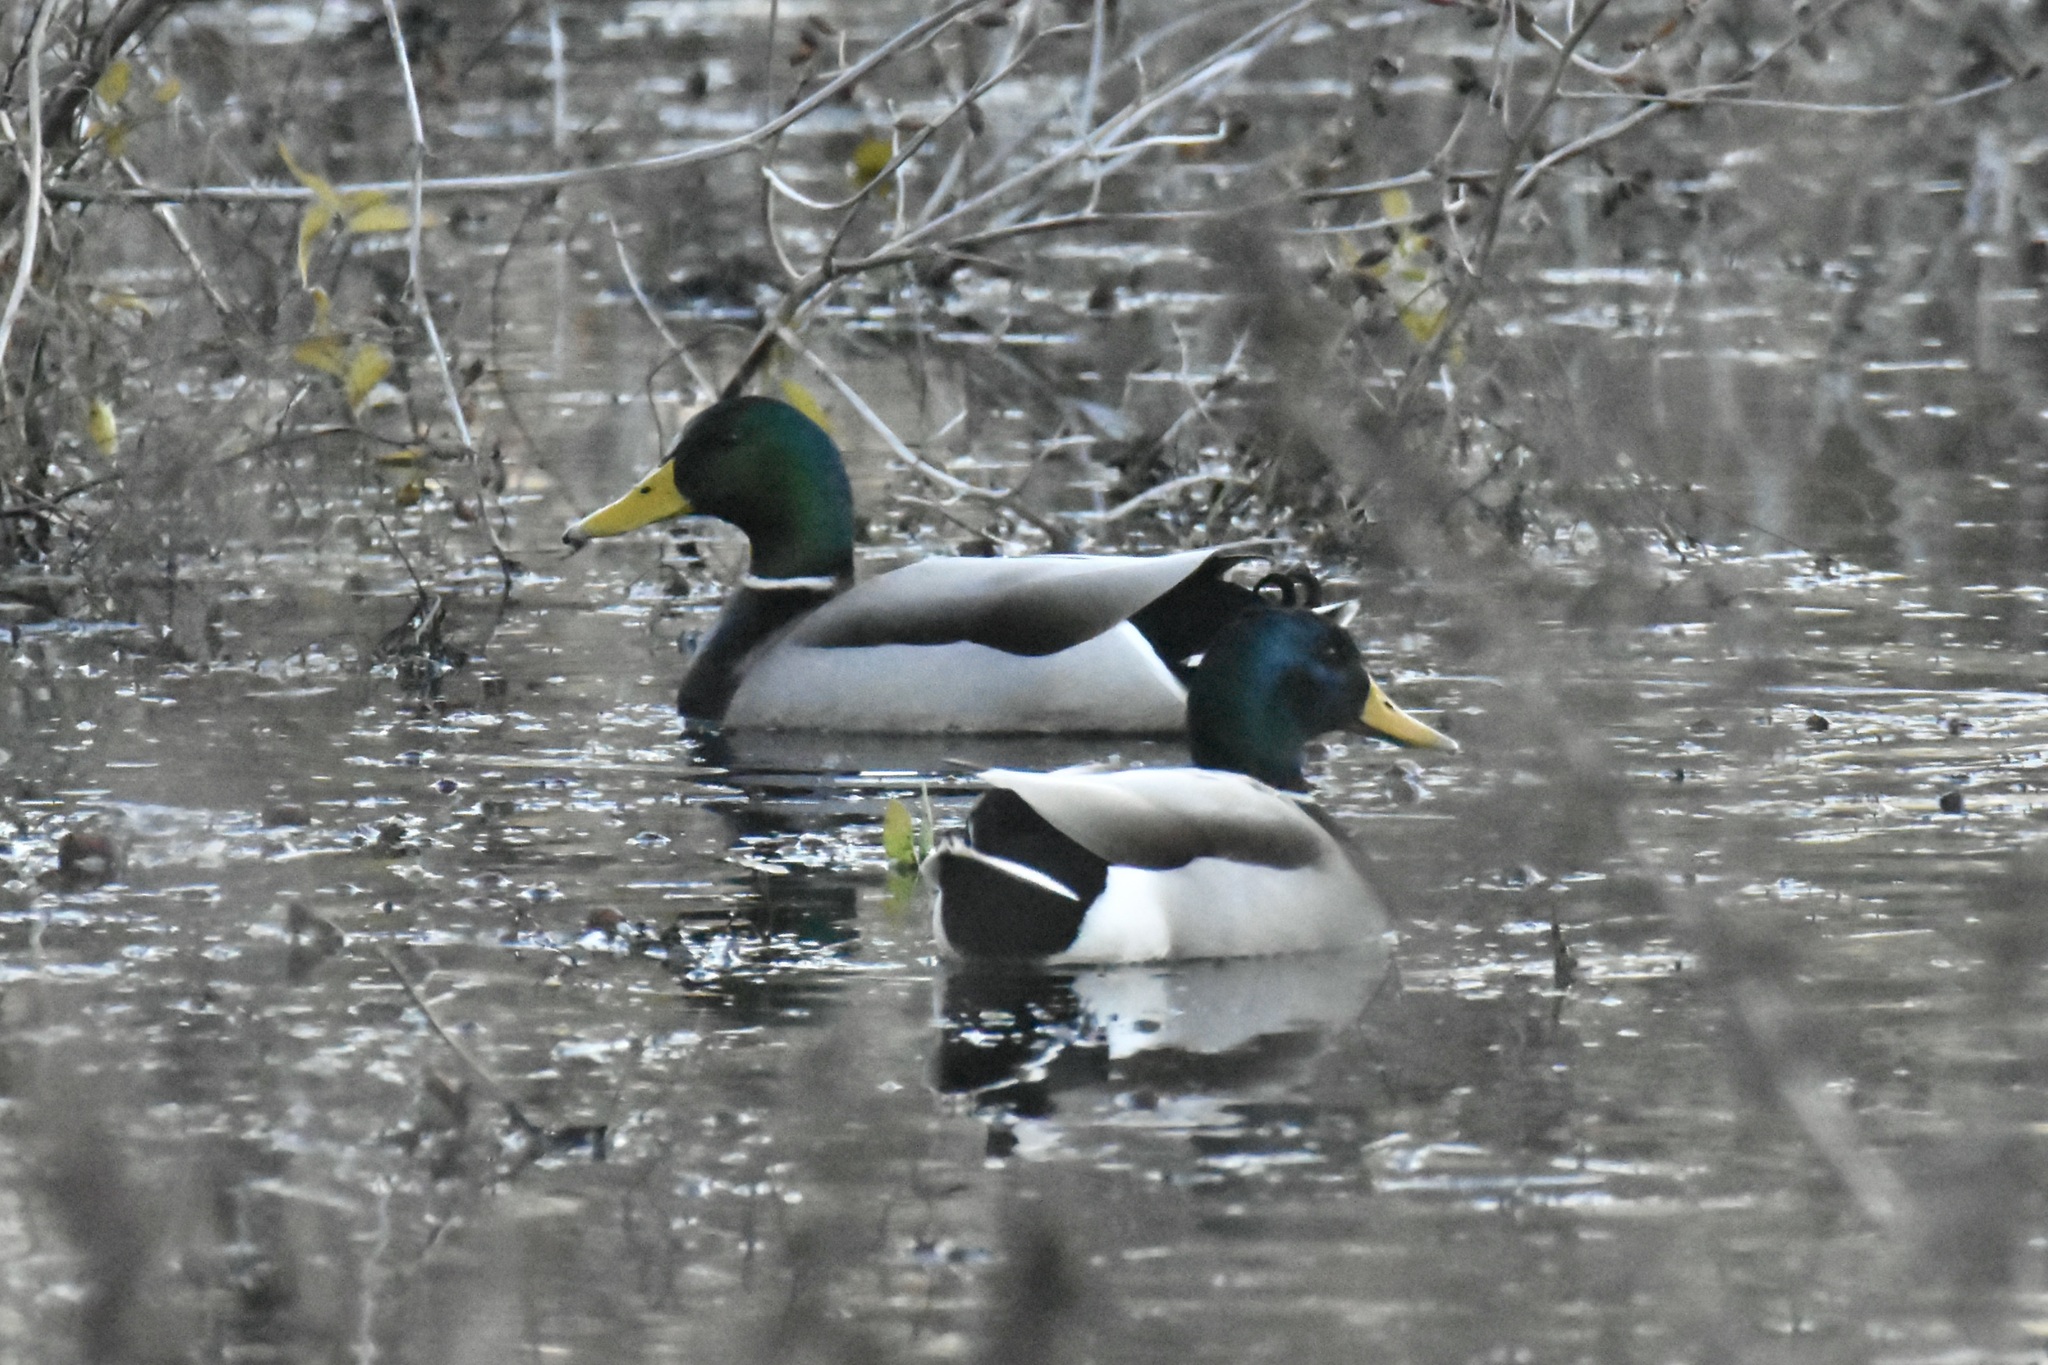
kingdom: Animalia
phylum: Chordata
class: Aves
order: Anseriformes
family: Anatidae
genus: Anas
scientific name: Anas platyrhynchos
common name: Mallard
